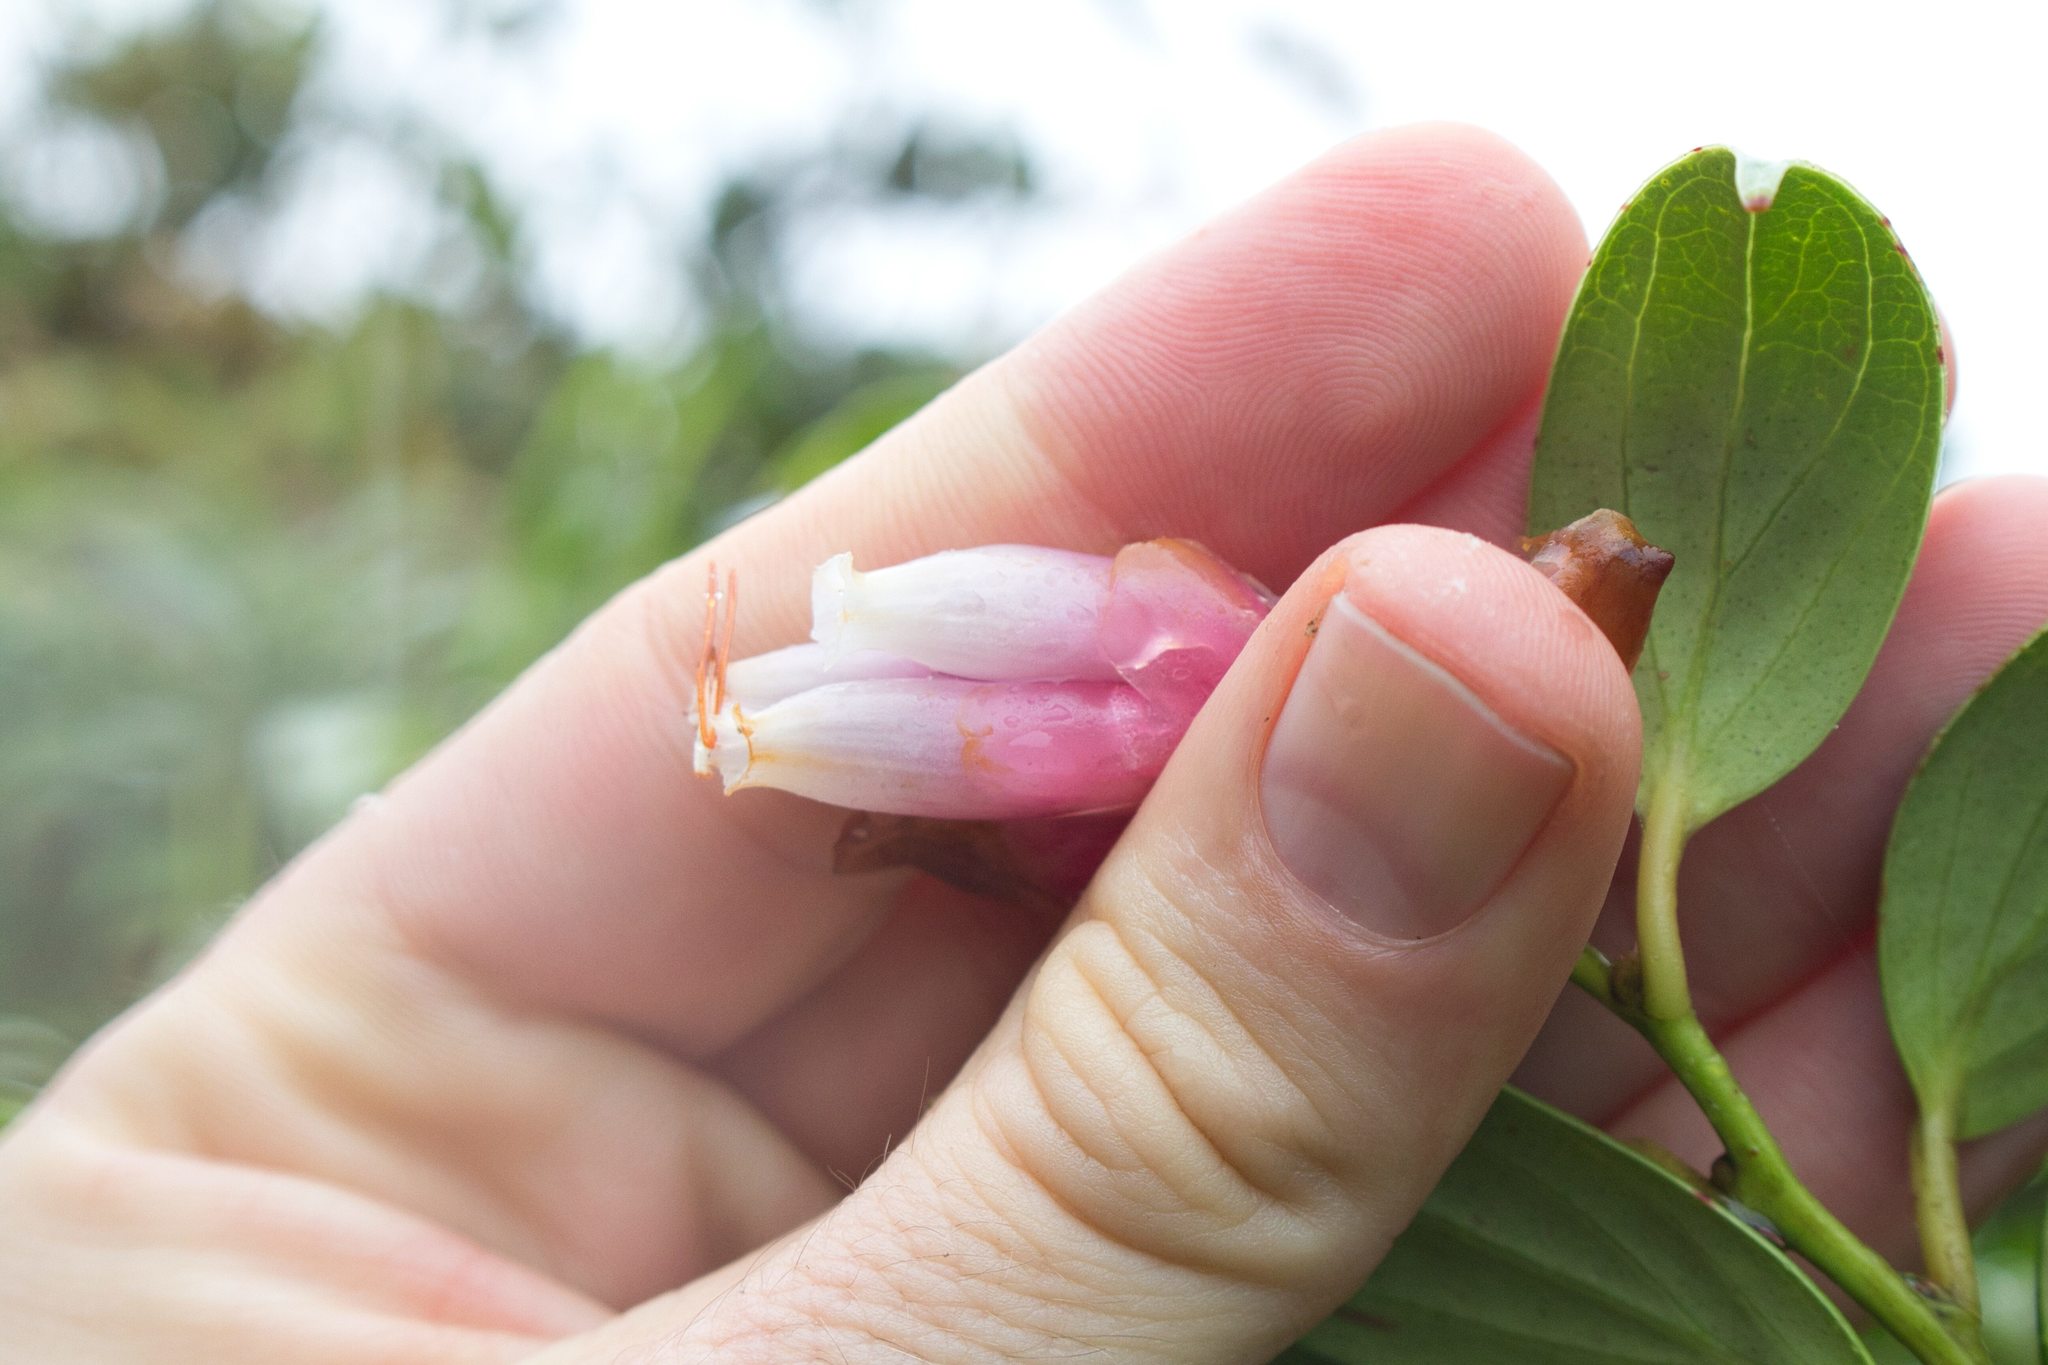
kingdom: Plantae
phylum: Tracheophyta
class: Magnoliopsida
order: Ericales
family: Ericaceae
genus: Cavendishia
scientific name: Cavendishia bracteata
